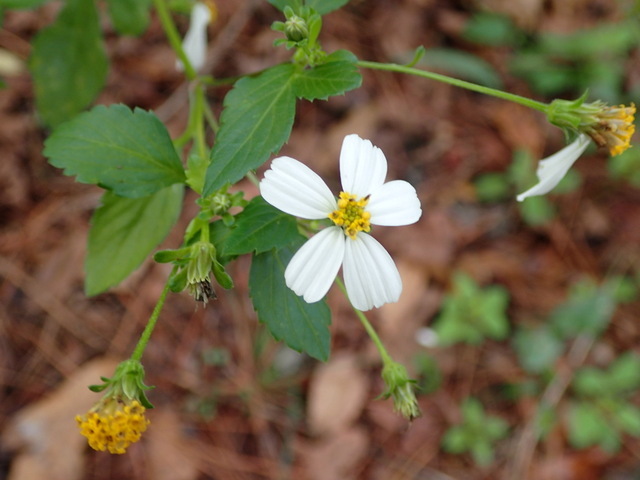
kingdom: Plantae
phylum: Tracheophyta
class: Magnoliopsida
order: Asterales
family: Asteraceae
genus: Bidens
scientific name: Bidens alba
